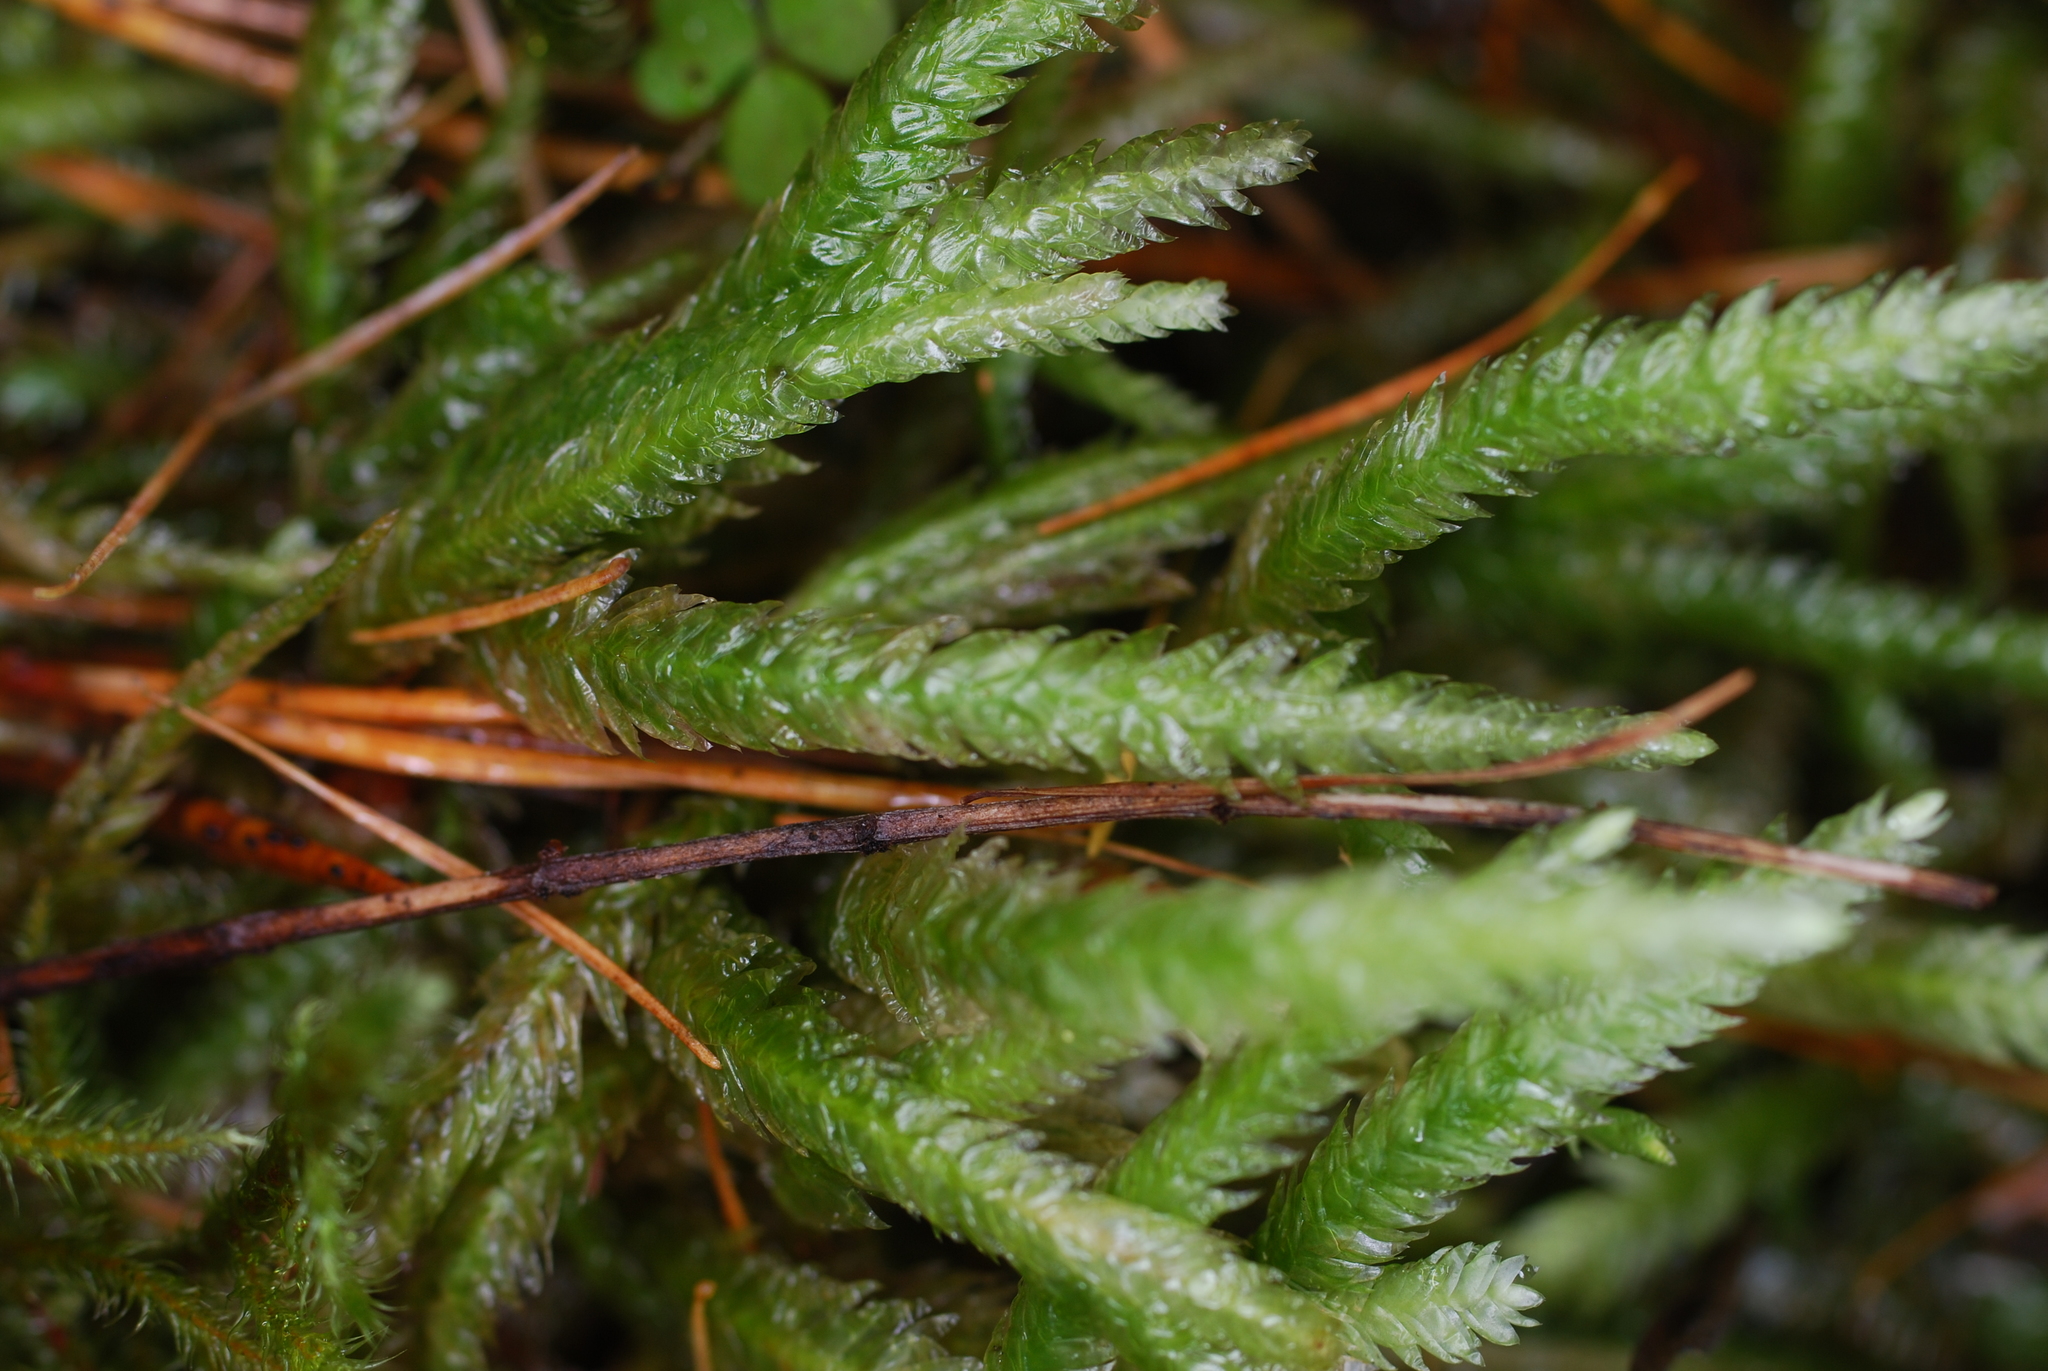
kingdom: Plantae
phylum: Bryophyta
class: Bryopsida
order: Hypnales
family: Plagiotheciaceae
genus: Plagiothecium
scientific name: Plagiothecium undulatum
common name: Waved silk-moss
